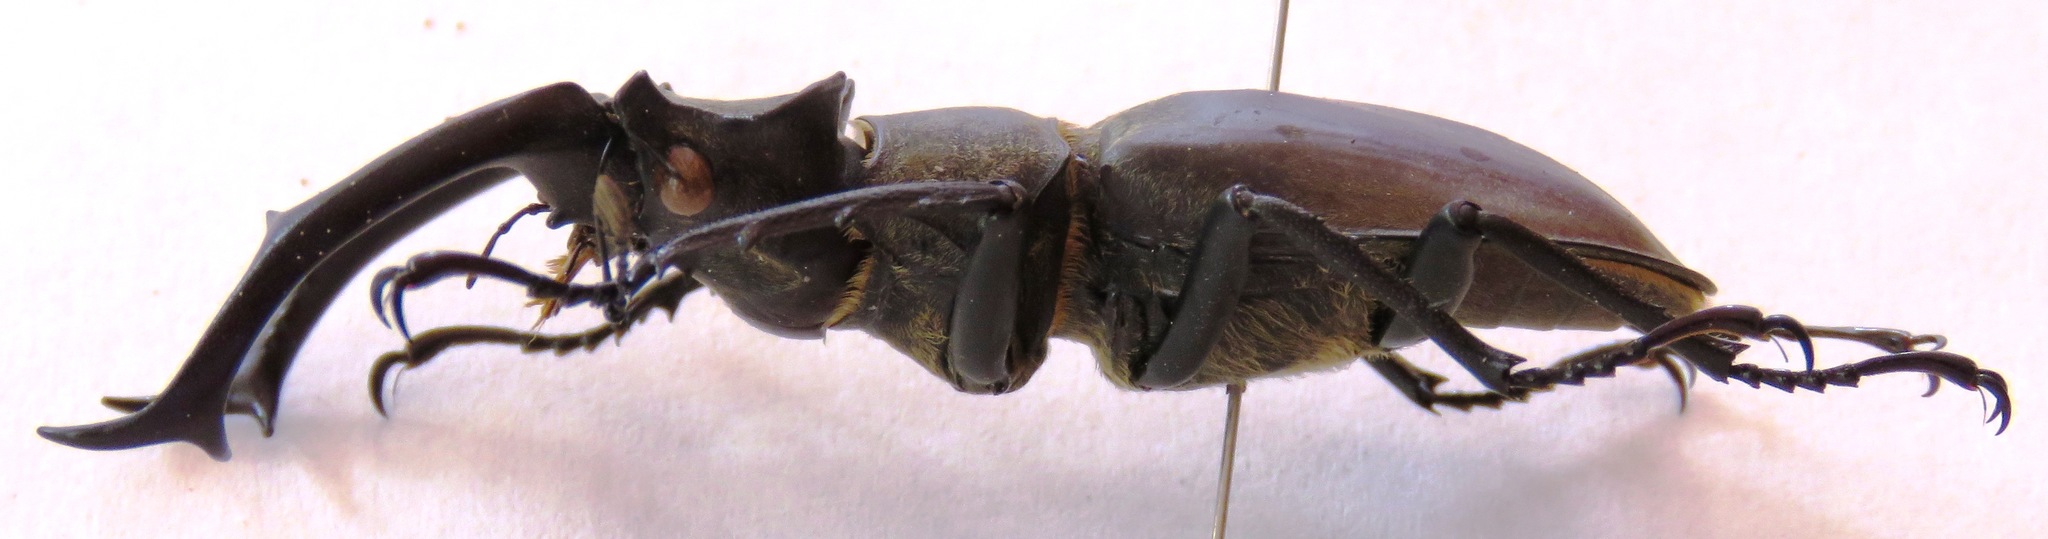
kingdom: Animalia
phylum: Arthropoda
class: Insecta
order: Coleoptera
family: Lucanidae
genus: Lucanus
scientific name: Lucanus nobilis
